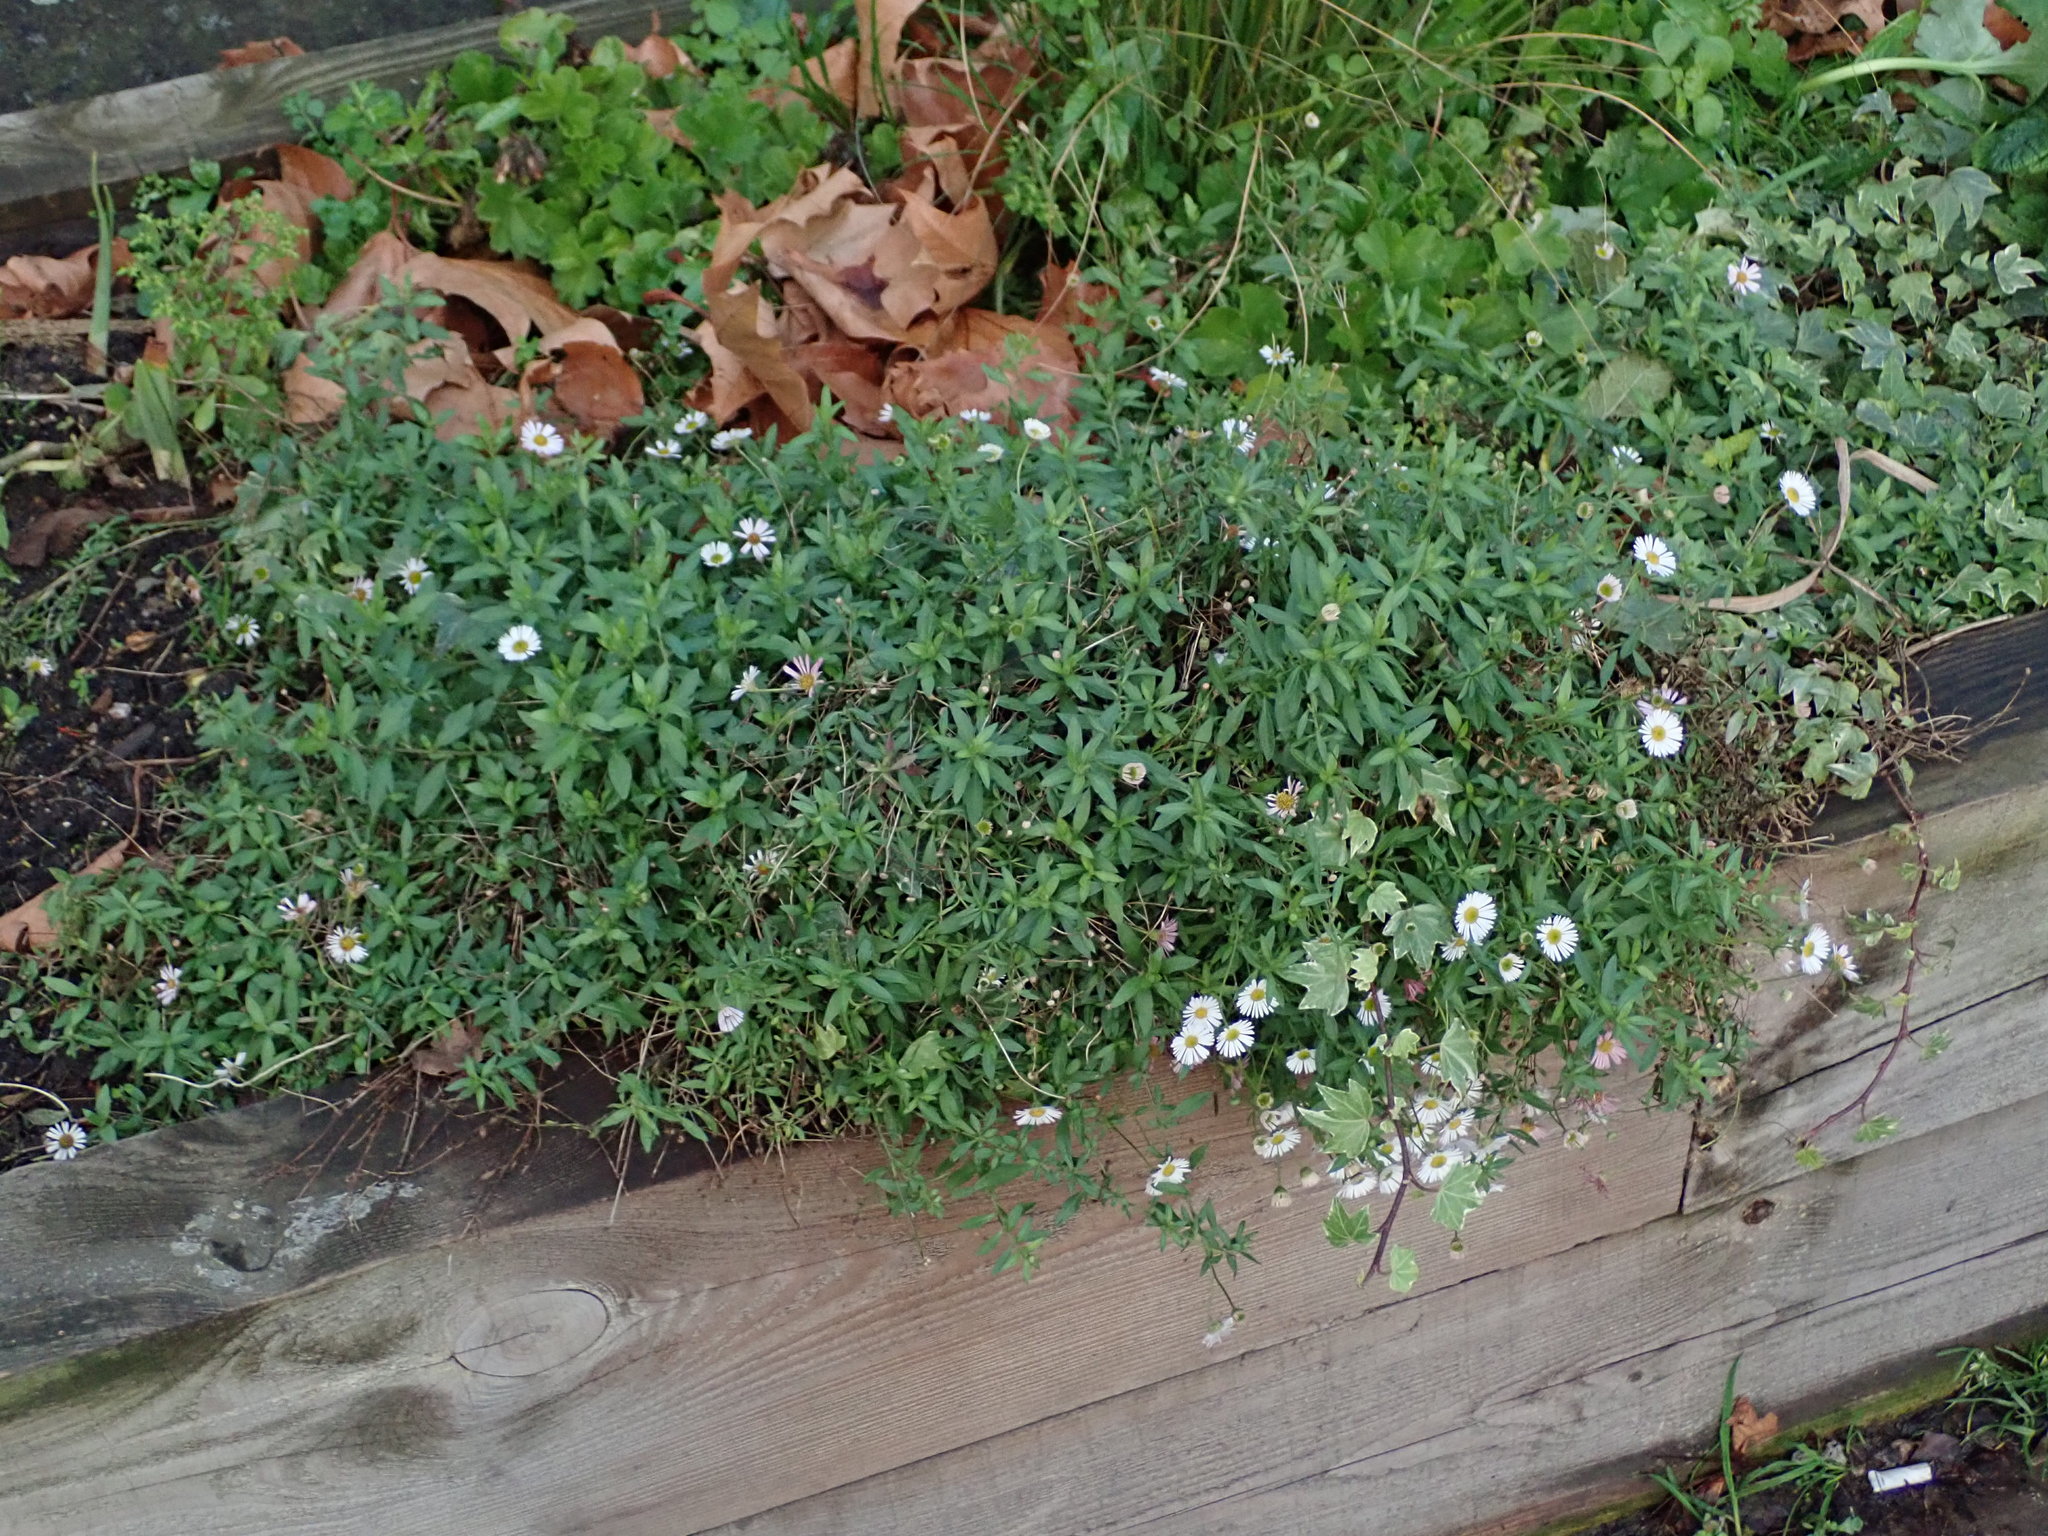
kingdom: Plantae
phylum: Tracheophyta
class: Magnoliopsida
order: Asterales
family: Asteraceae
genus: Erigeron
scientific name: Erigeron karvinskianus
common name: Mexican fleabane
